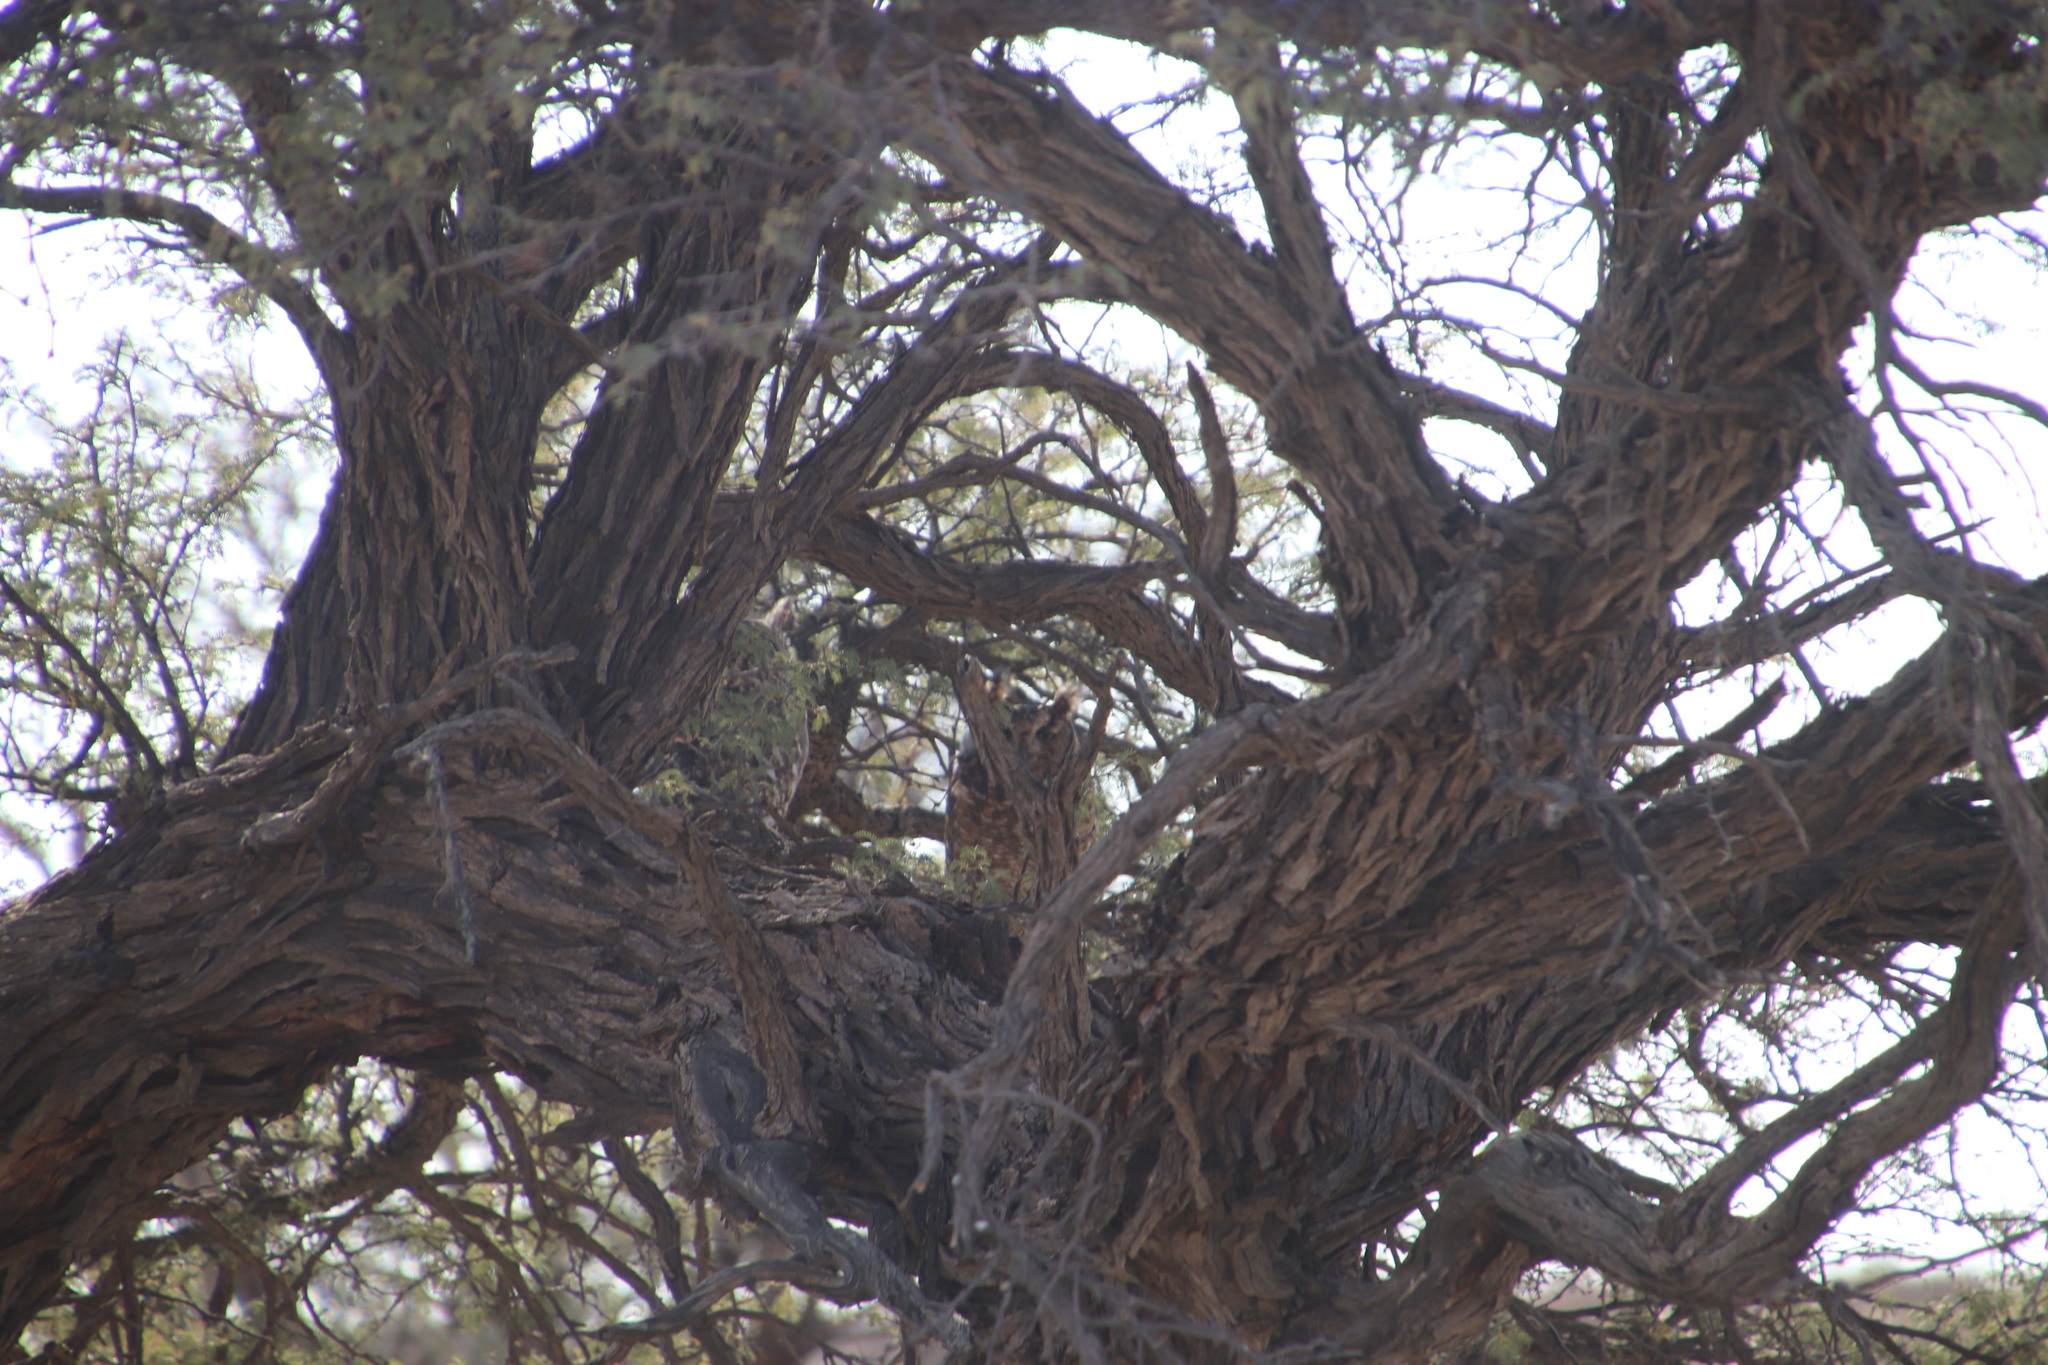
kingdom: Animalia
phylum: Chordata
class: Aves
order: Strigiformes
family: Strigidae
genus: Bubo
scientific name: Bubo africanus
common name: Spotted eagle-owl
